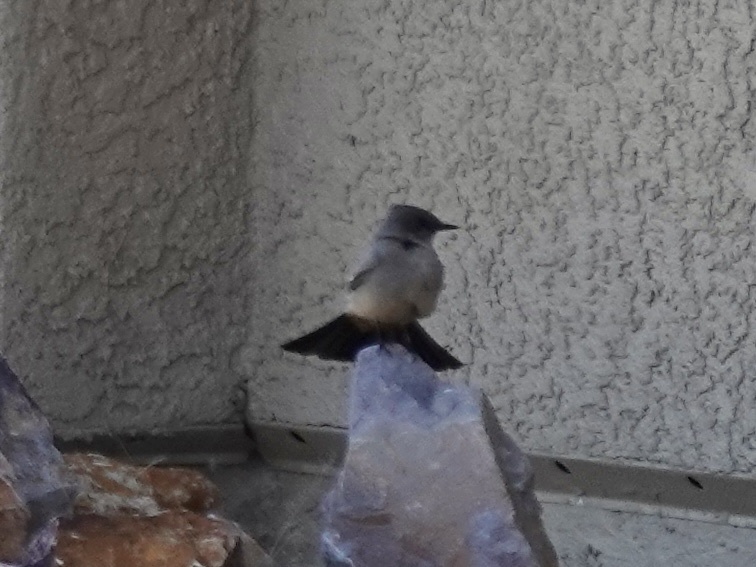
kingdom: Animalia
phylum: Chordata
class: Aves
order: Passeriformes
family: Tyrannidae
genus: Sayornis
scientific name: Sayornis saya
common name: Say's phoebe
